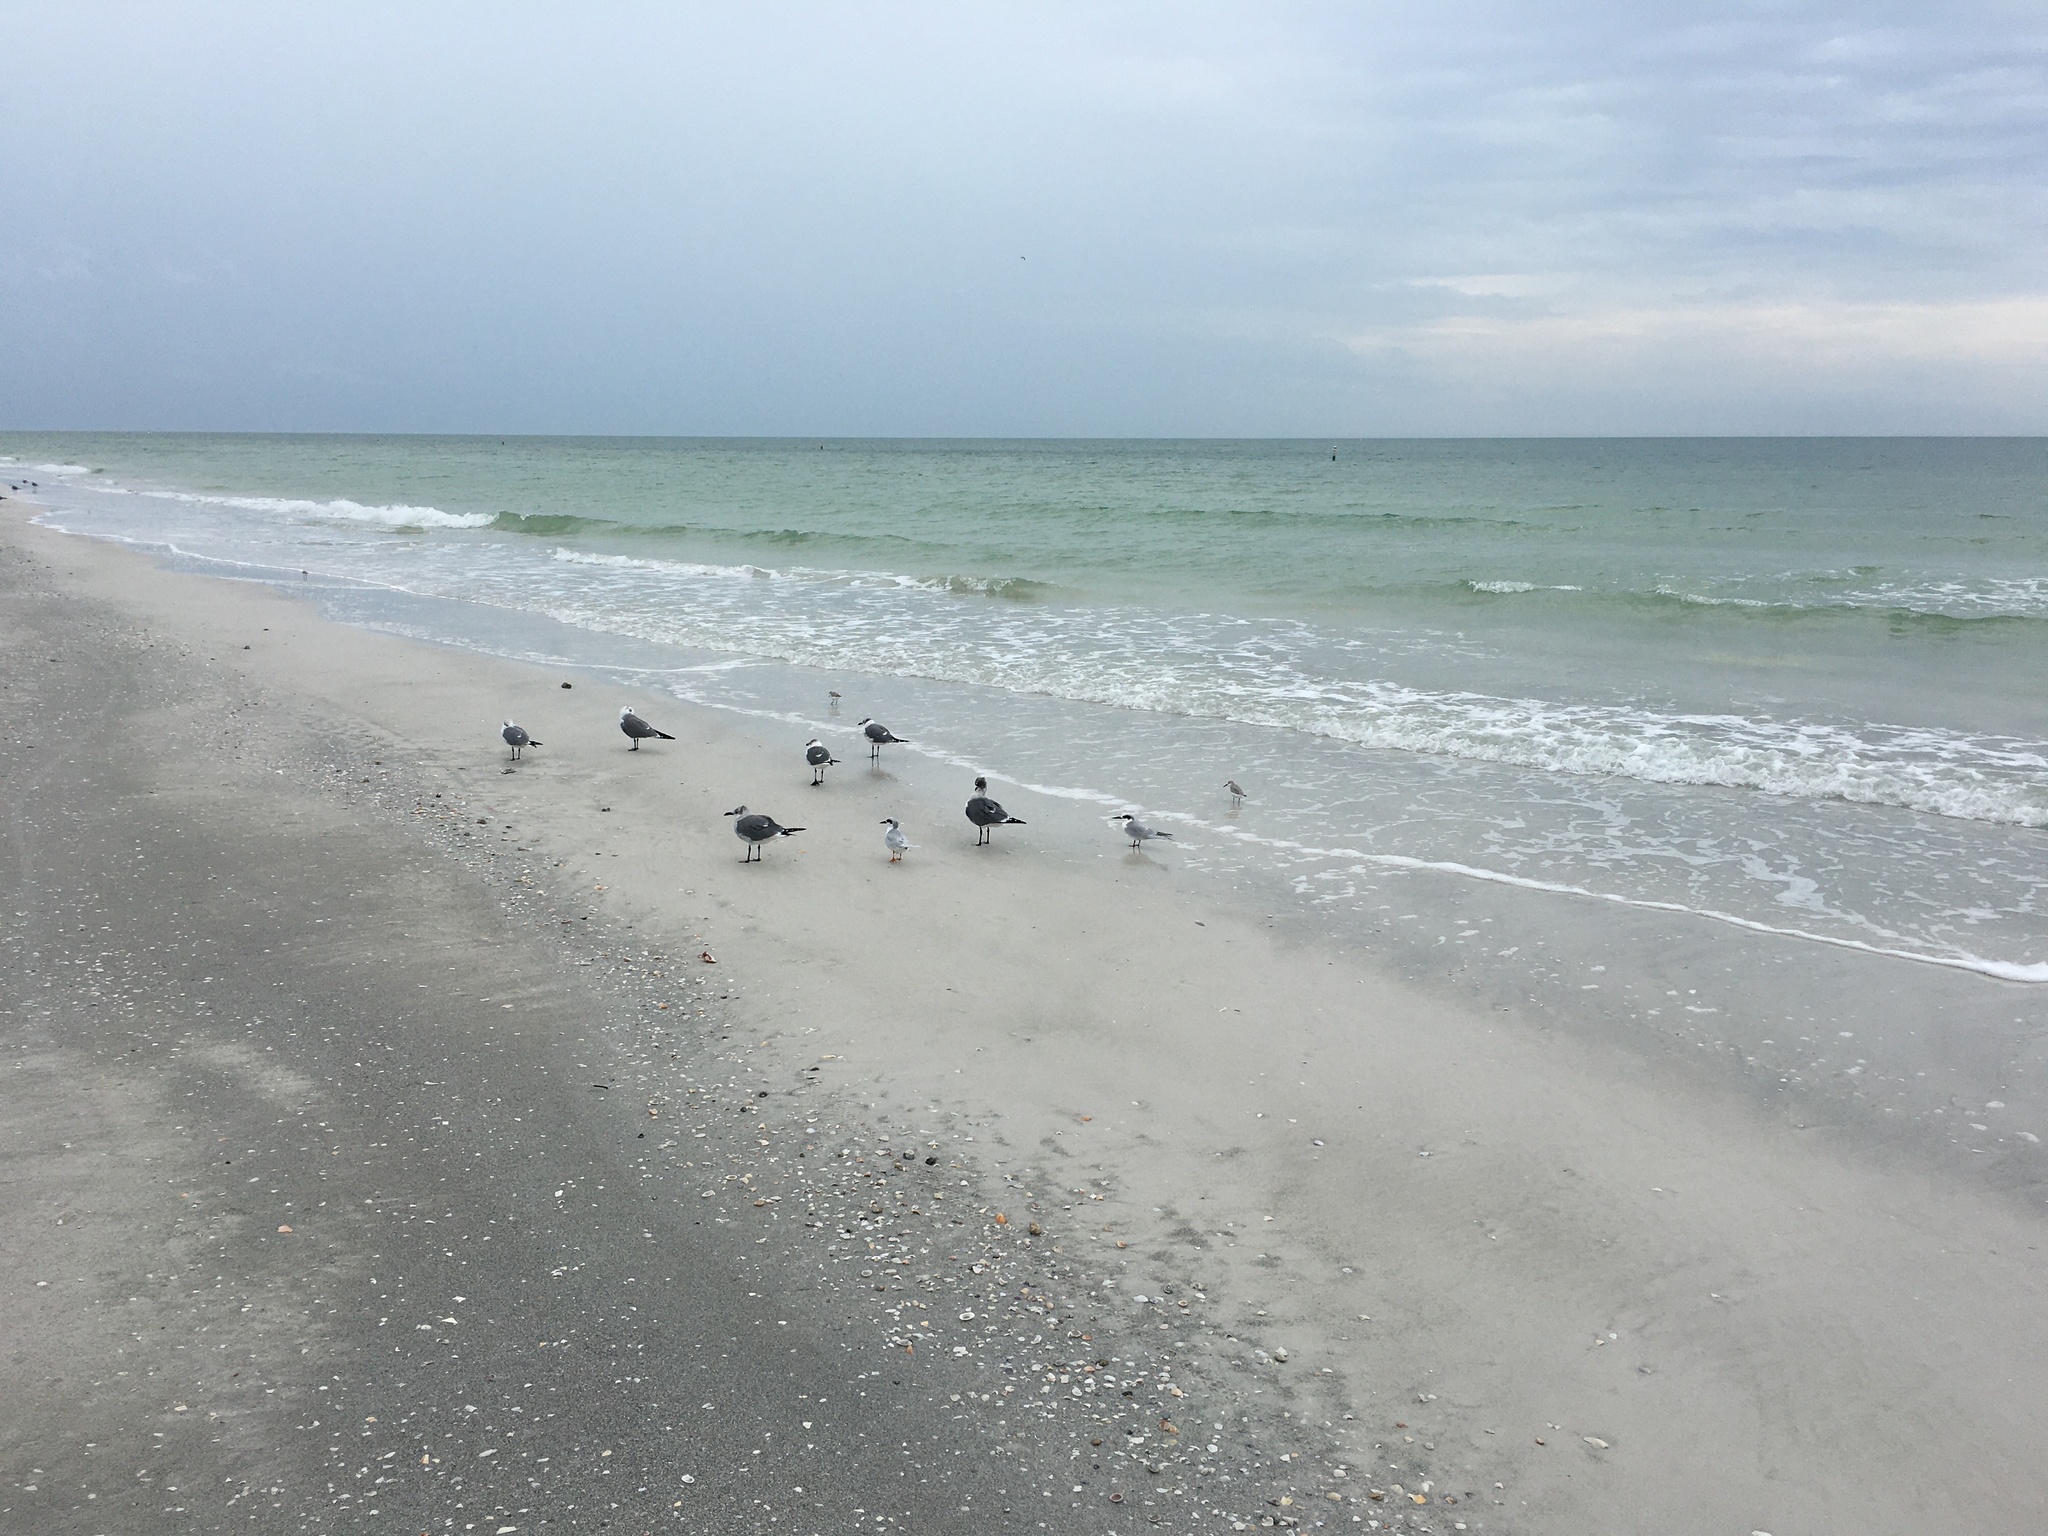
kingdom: Animalia
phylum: Chordata
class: Aves
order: Charadriiformes
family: Laridae
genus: Leucophaeus
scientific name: Leucophaeus atricilla
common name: Laughing gull
